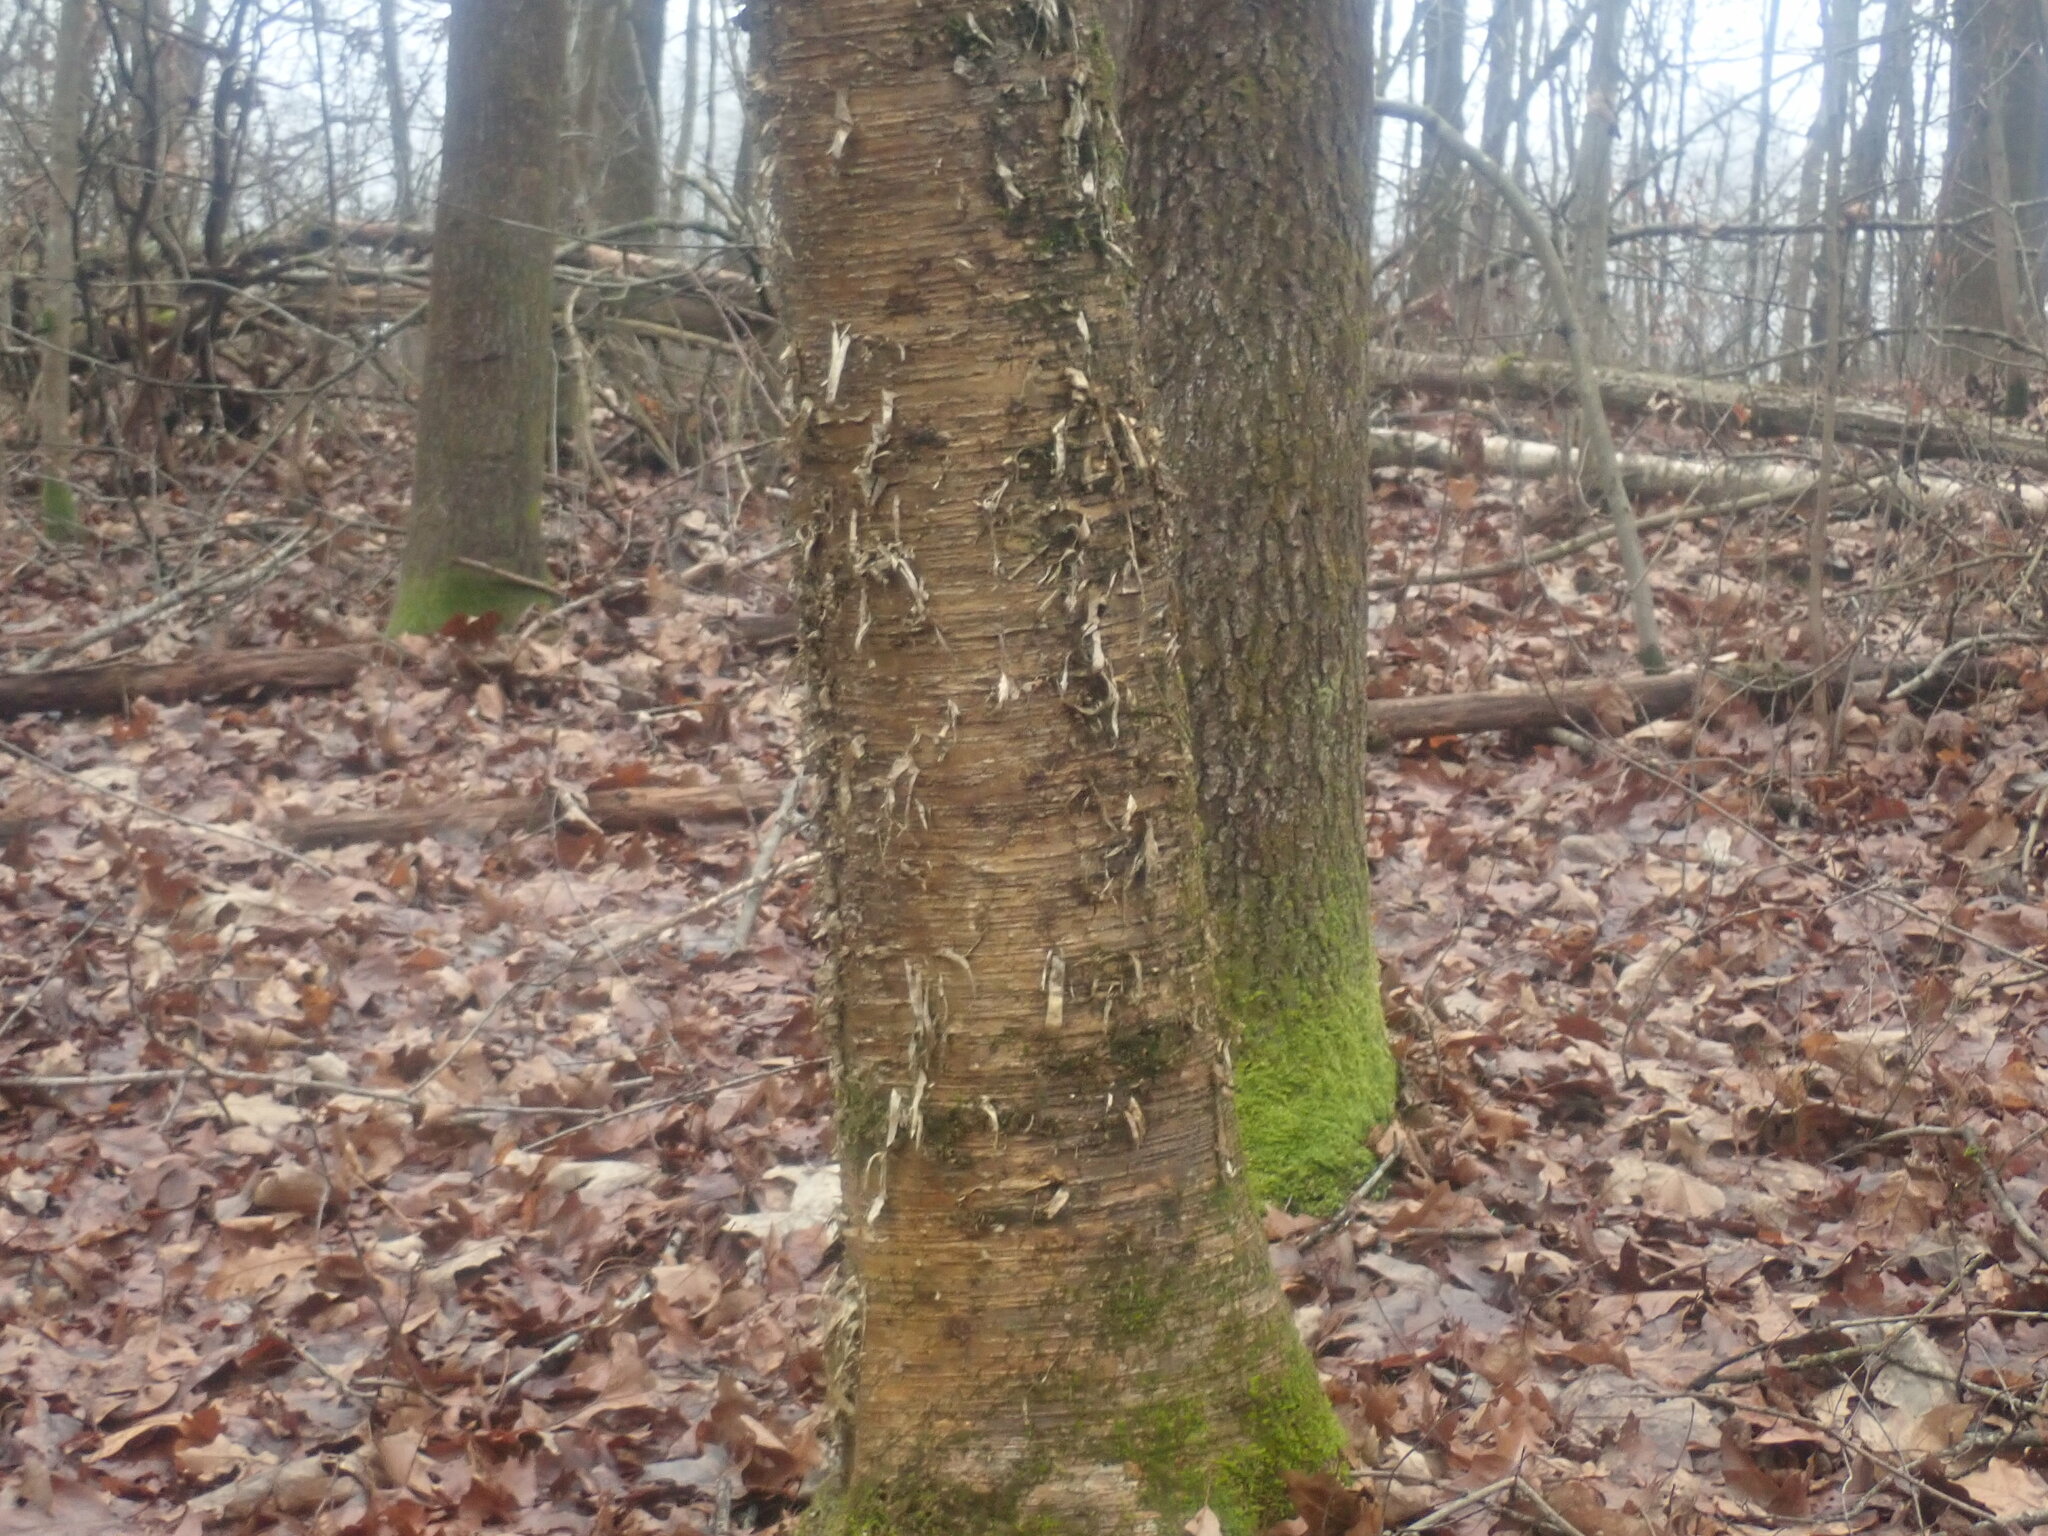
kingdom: Plantae
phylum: Tracheophyta
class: Magnoliopsida
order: Fagales
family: Betulaceae
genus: Betula
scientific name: Betula alleghaniensis
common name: Yellow birch
